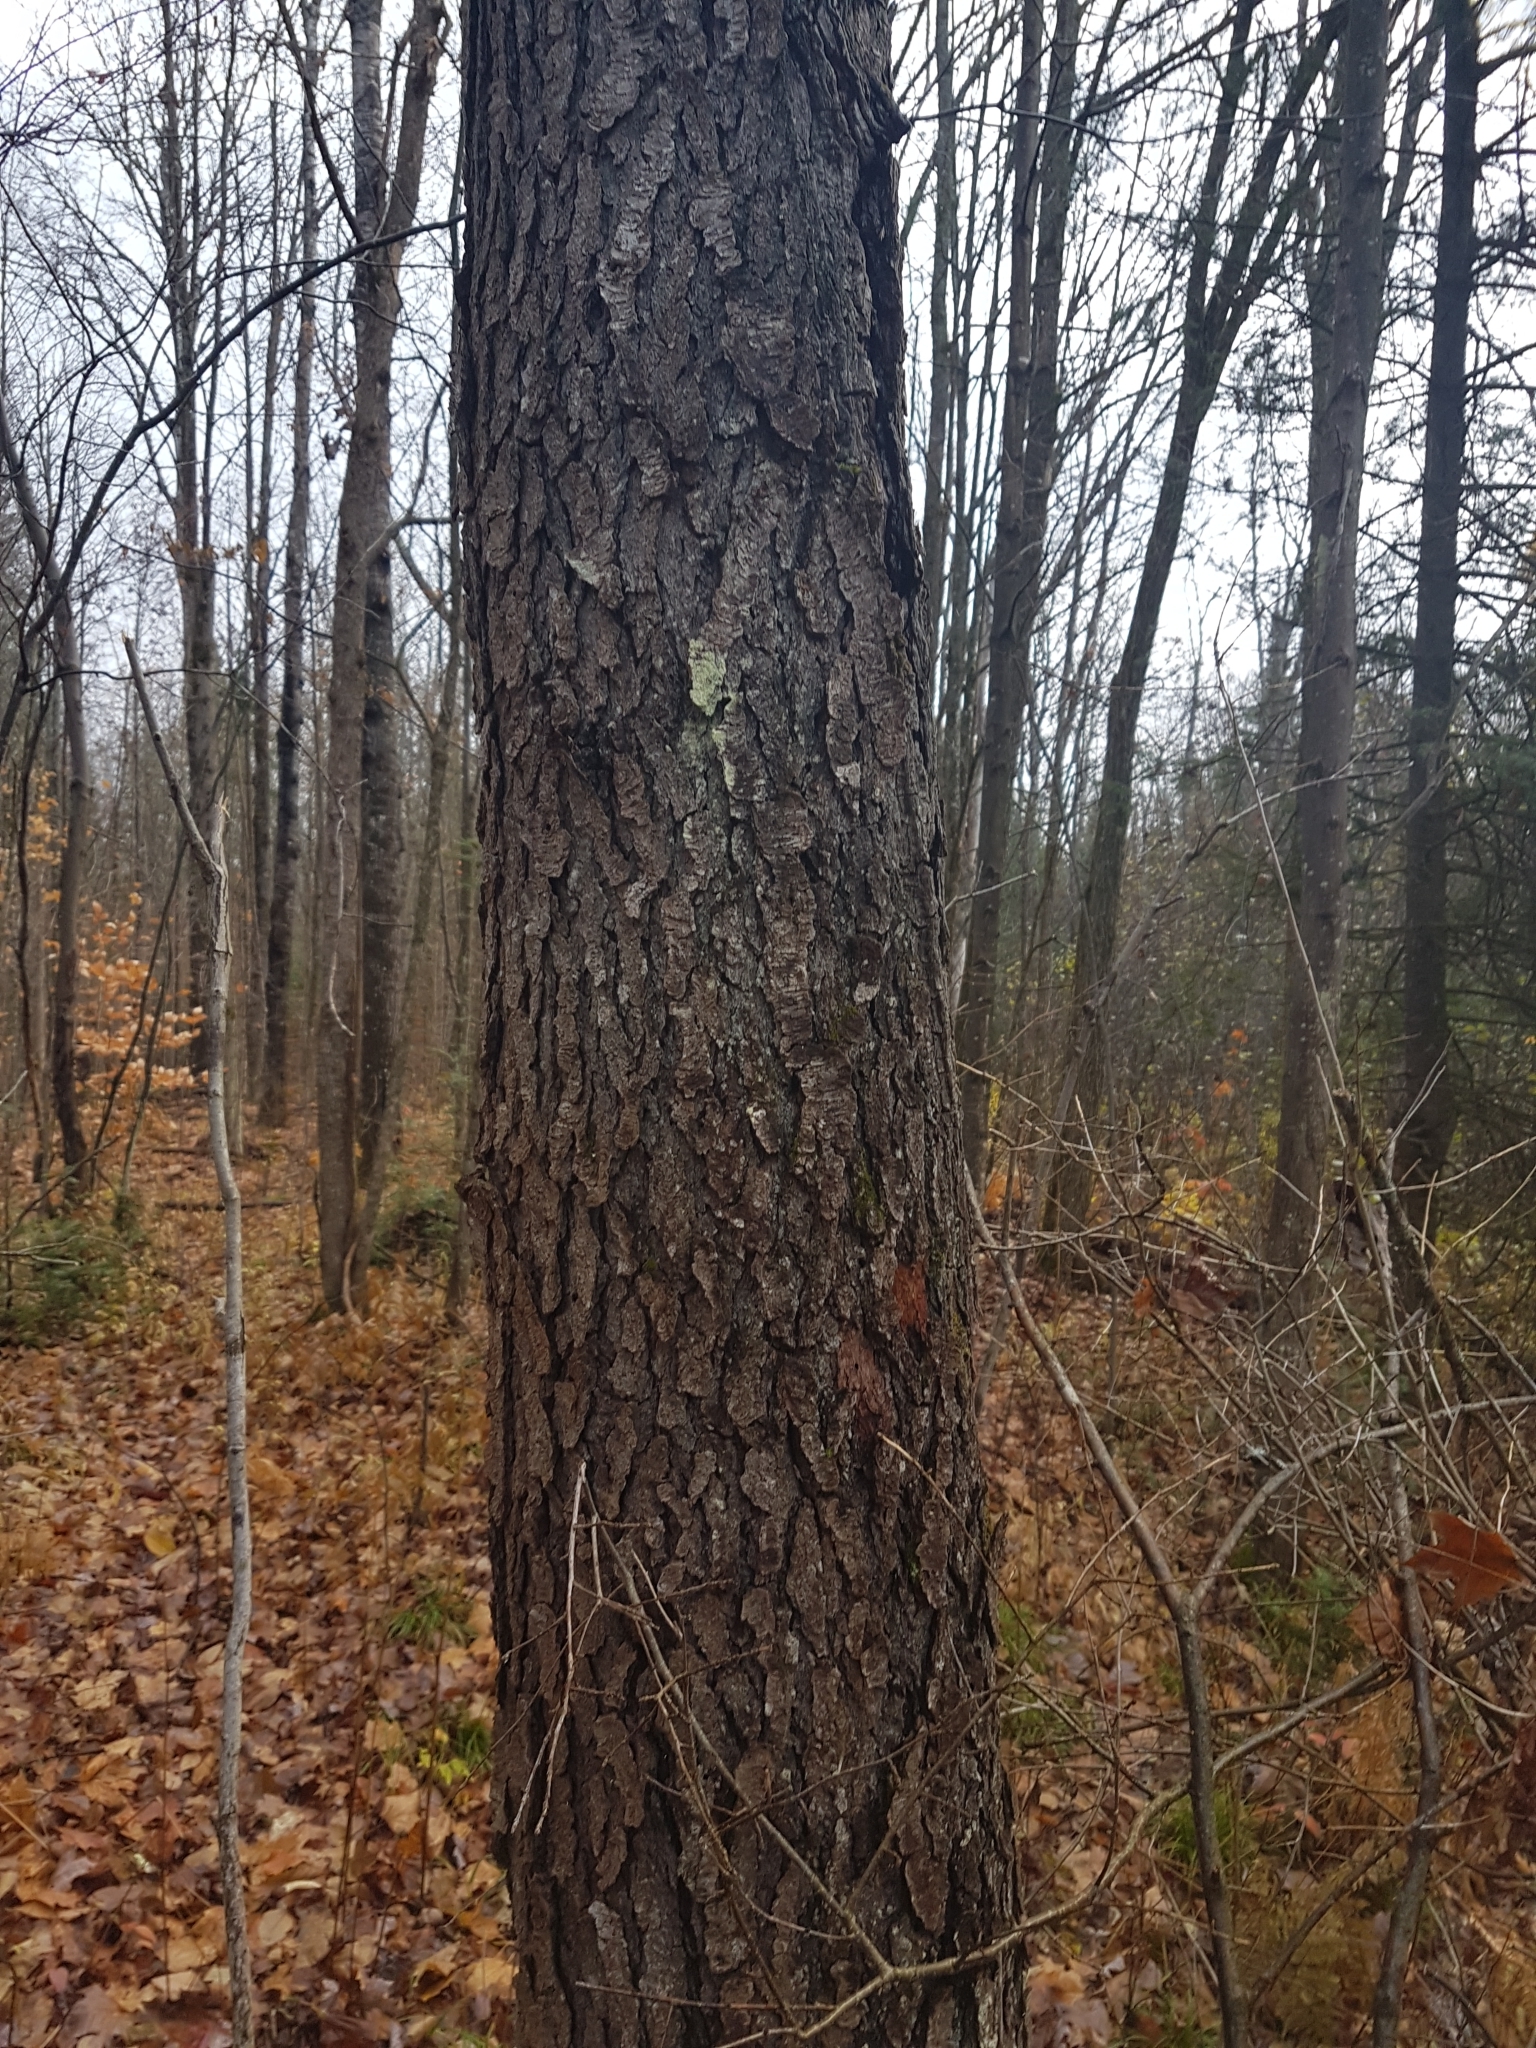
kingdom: Plantae
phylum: Tracheophyta
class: Magnoliopsida
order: Rosales
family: Rosaceae
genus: Prunus
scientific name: Prunus serotina
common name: Black cherry
